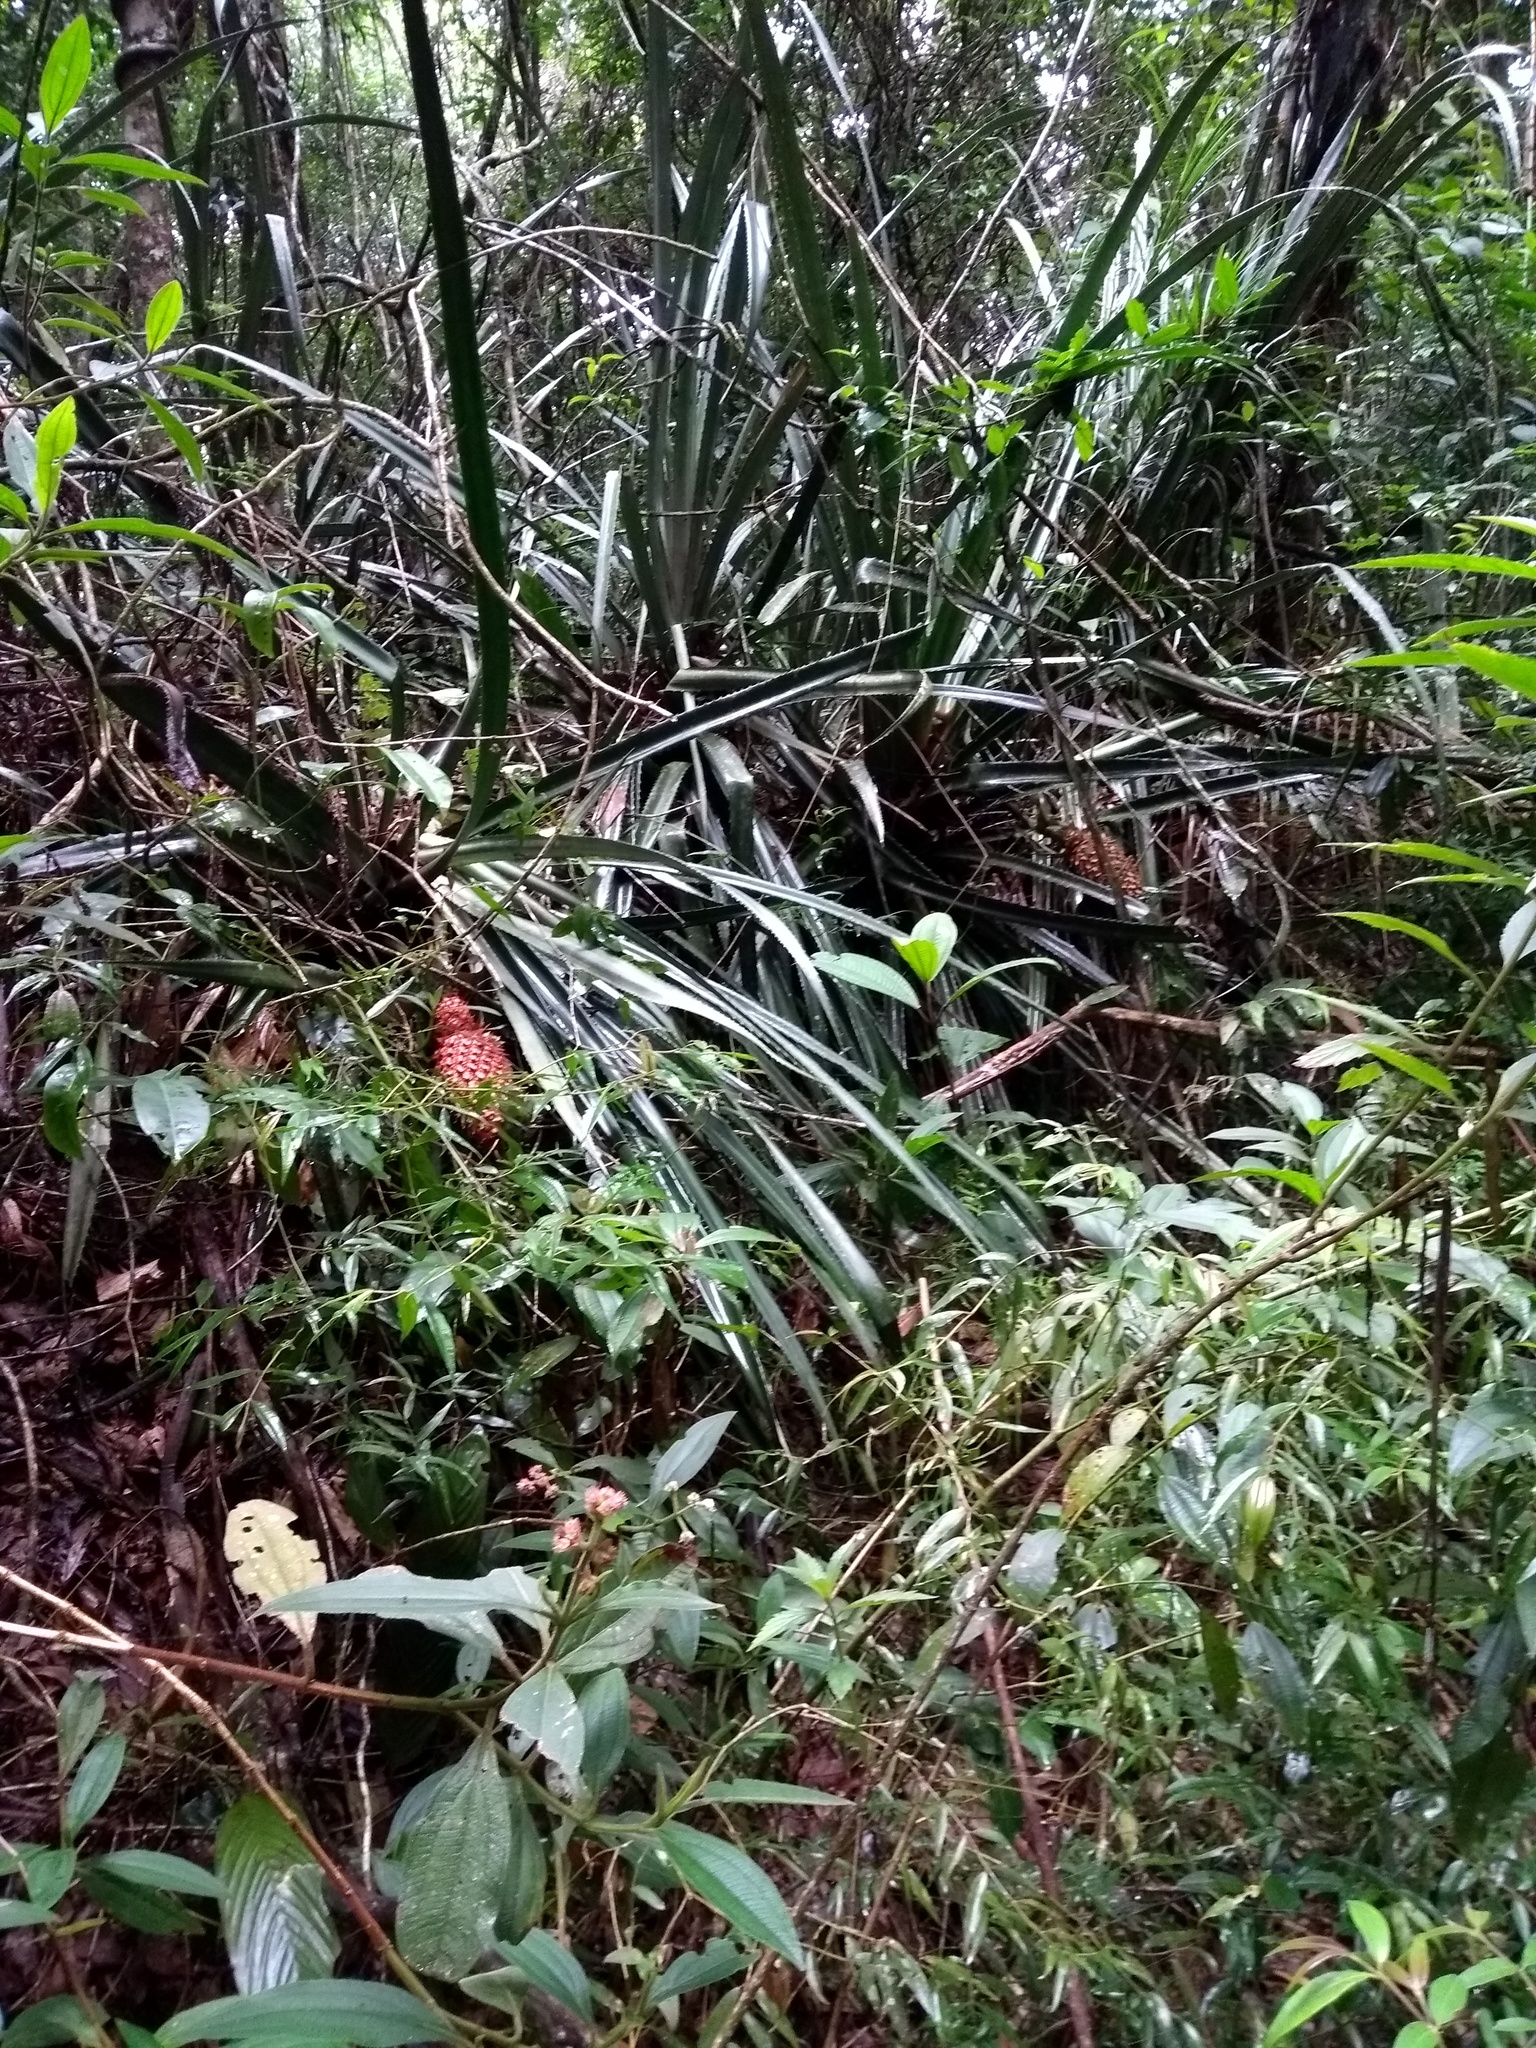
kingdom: Plantae
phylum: Tracheophyta
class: Liliopsida
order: Poales
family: Bromeliaceae
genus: Ananas
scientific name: Ananas comosus
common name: Pineapple
